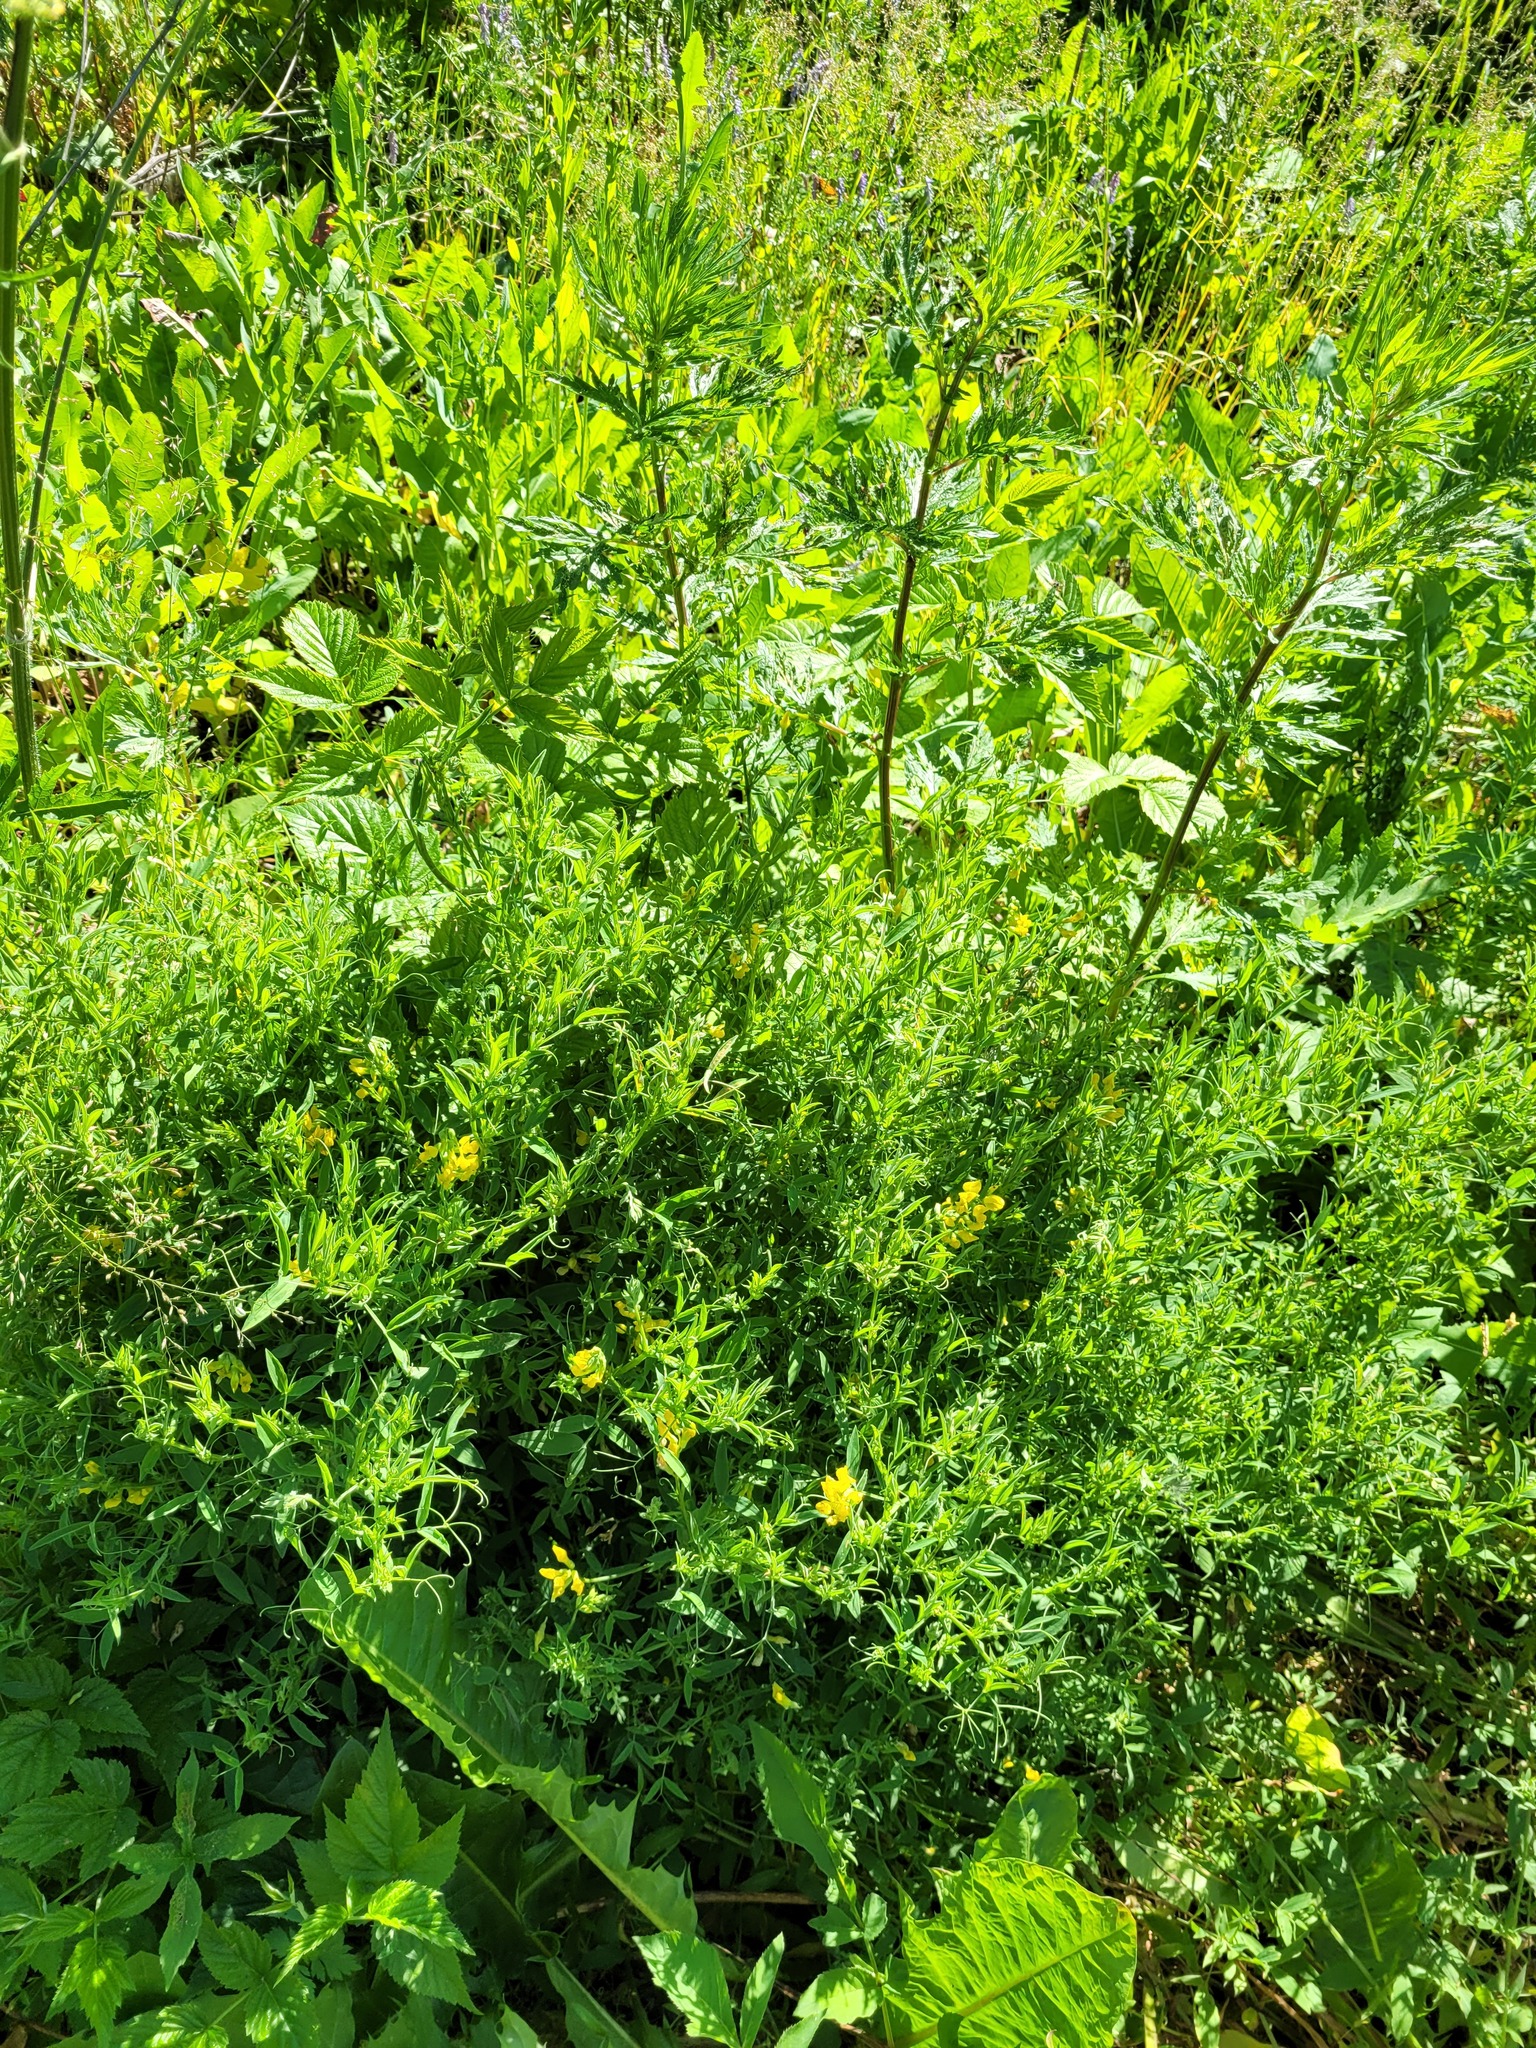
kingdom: Plantae
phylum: Tracheophyta
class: Magnoliopsida
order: Fabales
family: Fabaceae
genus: Lathyrus
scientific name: Lathyrus pratensis
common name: Meadow vetchling
